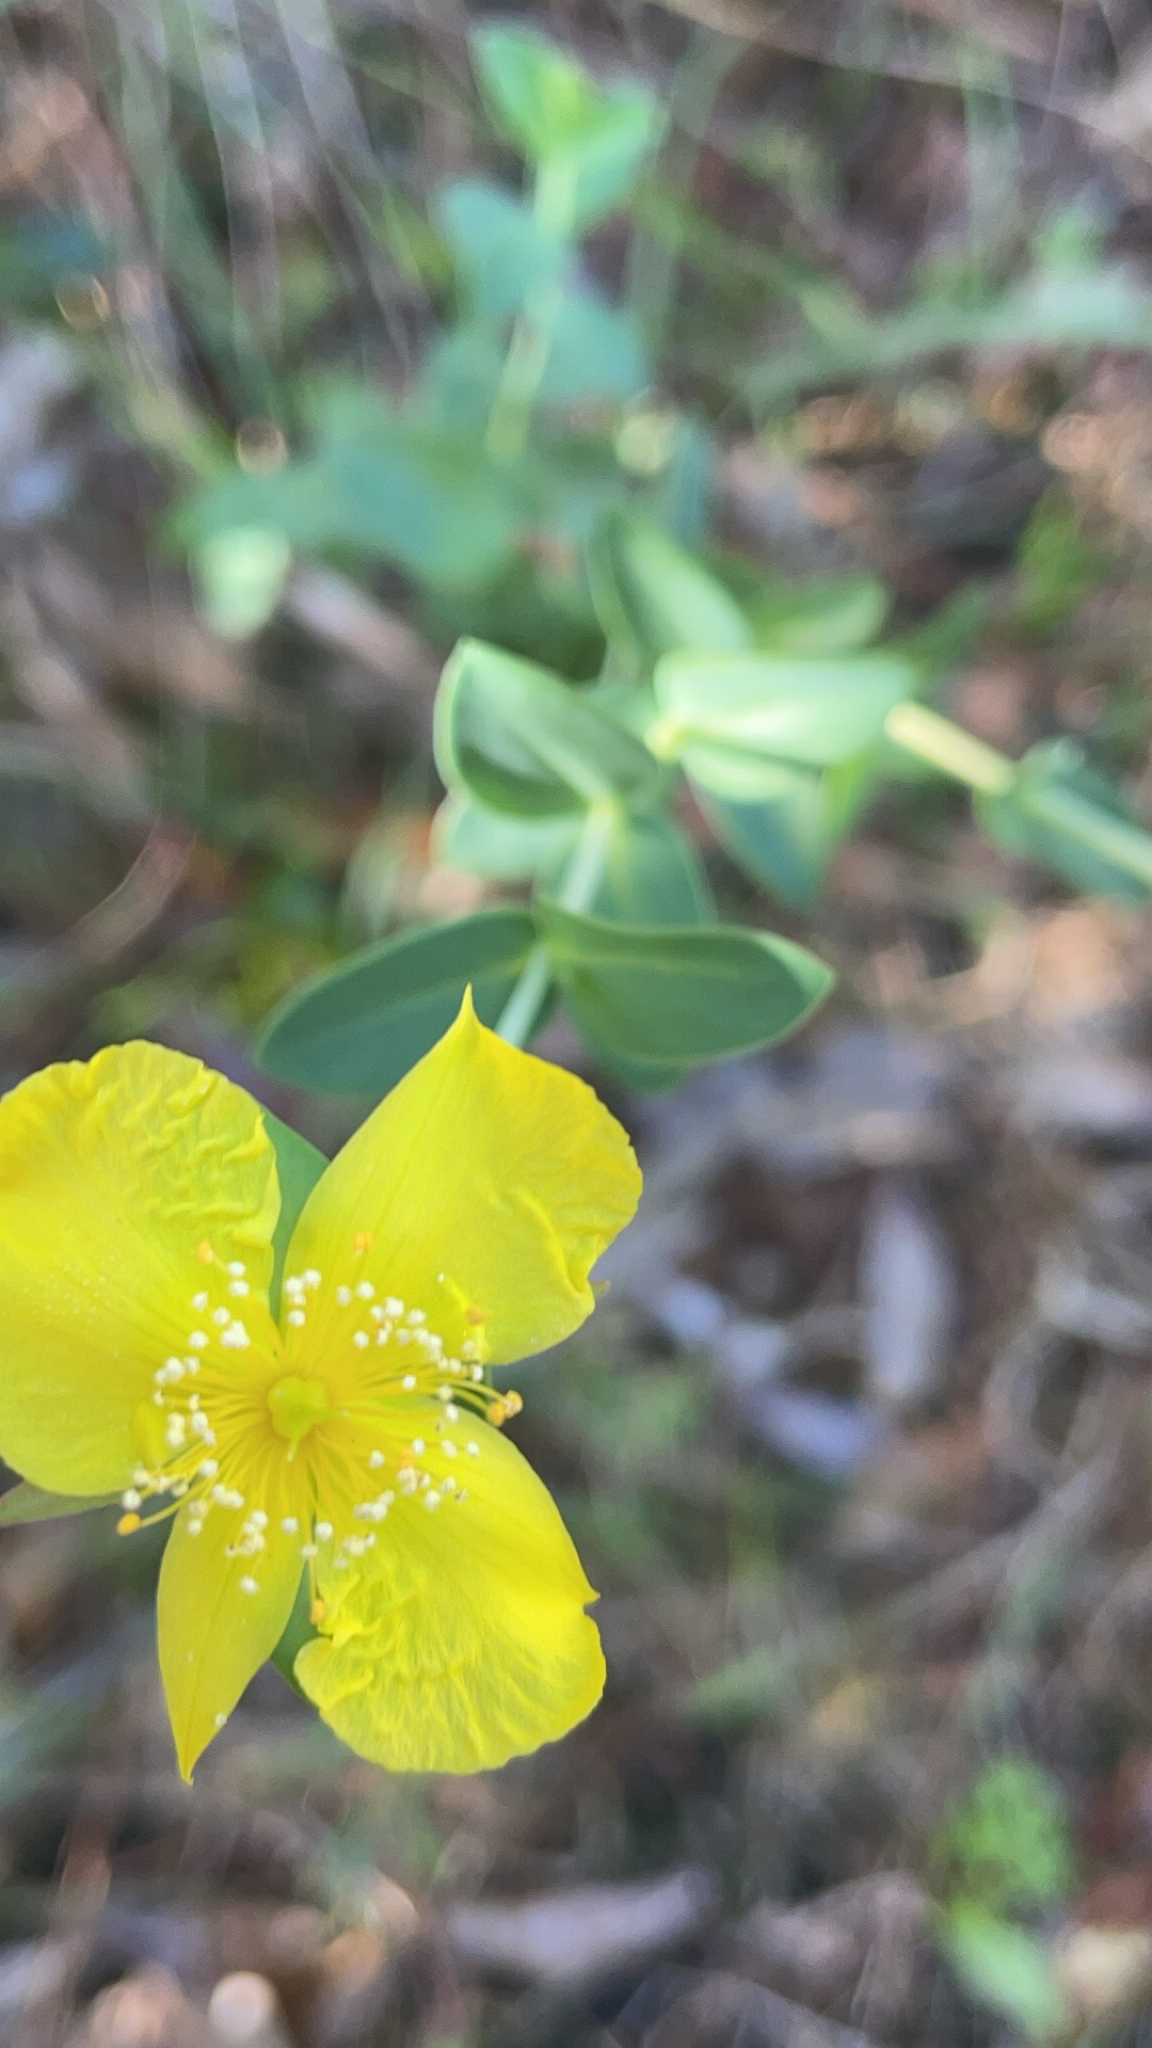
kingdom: Plantae
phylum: Tracheophyta
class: Magnoliopsida
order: Malpighiales
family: Hypericaceae
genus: Hypericum
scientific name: Hypericum tetrapetalum
